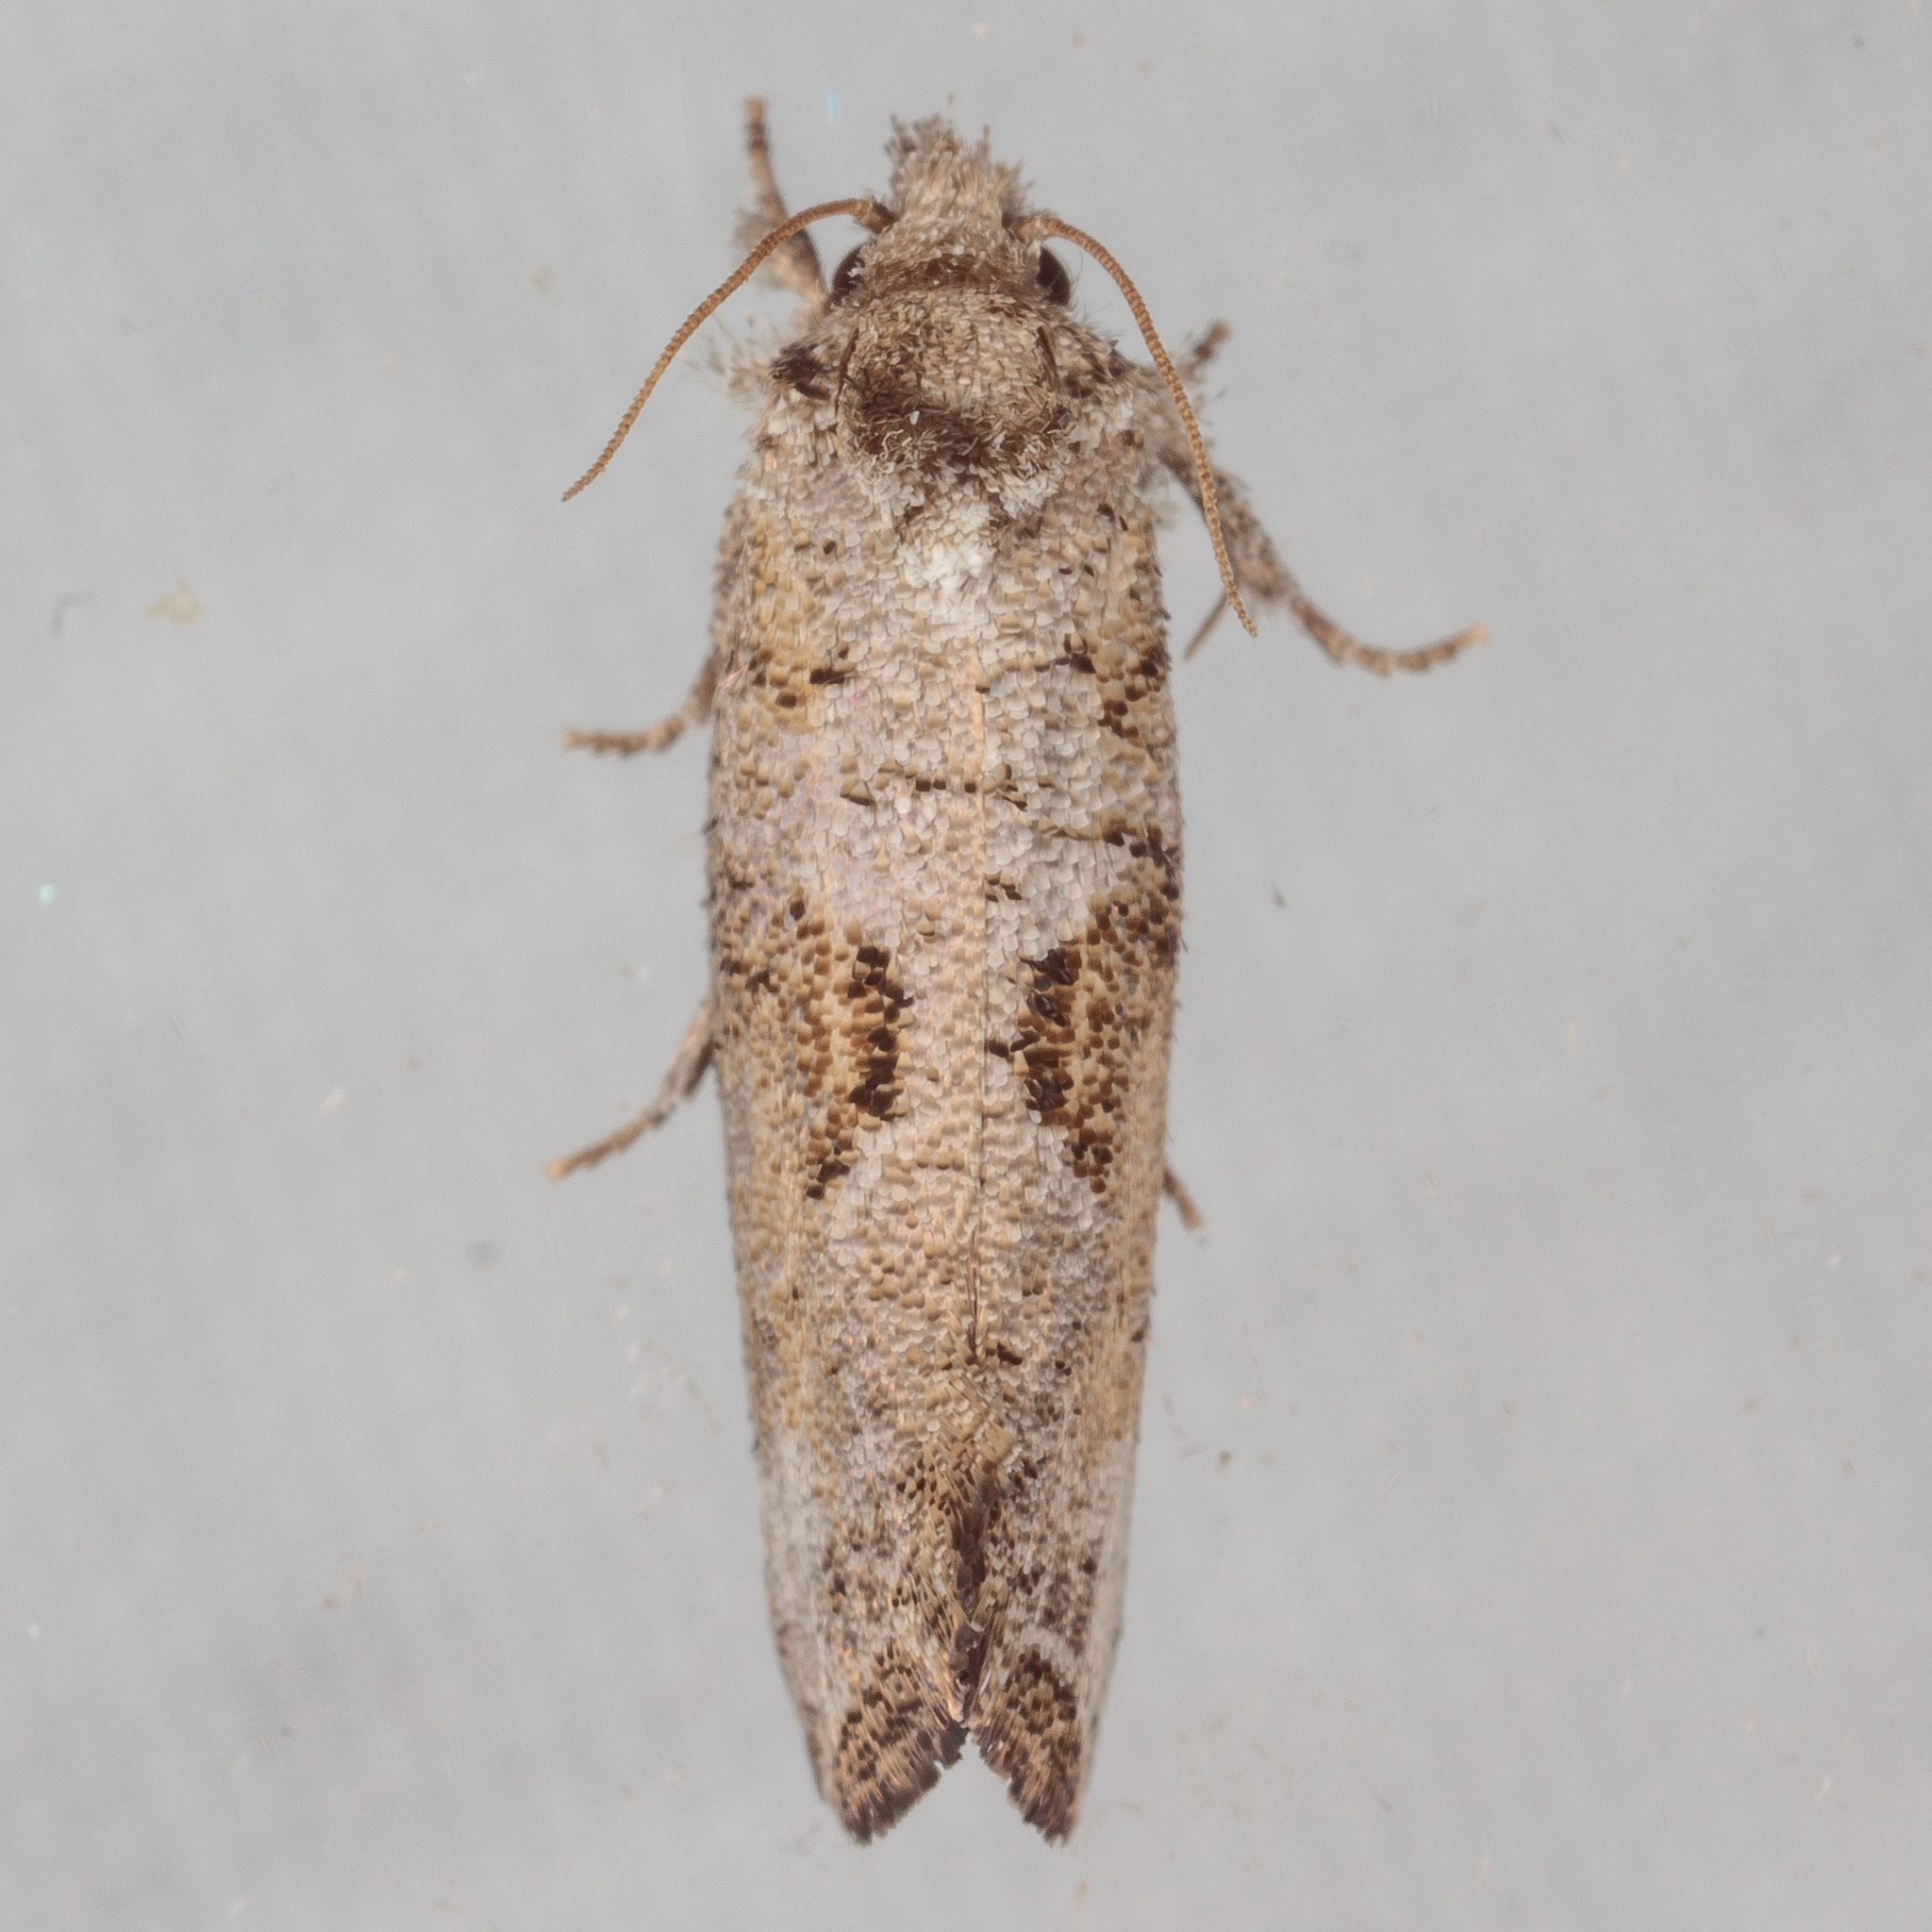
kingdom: Animalia
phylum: Arthropoda
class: Insecta
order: Lepidoptera
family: Tineidae
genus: Acrolophus
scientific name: Acrolophus piger
